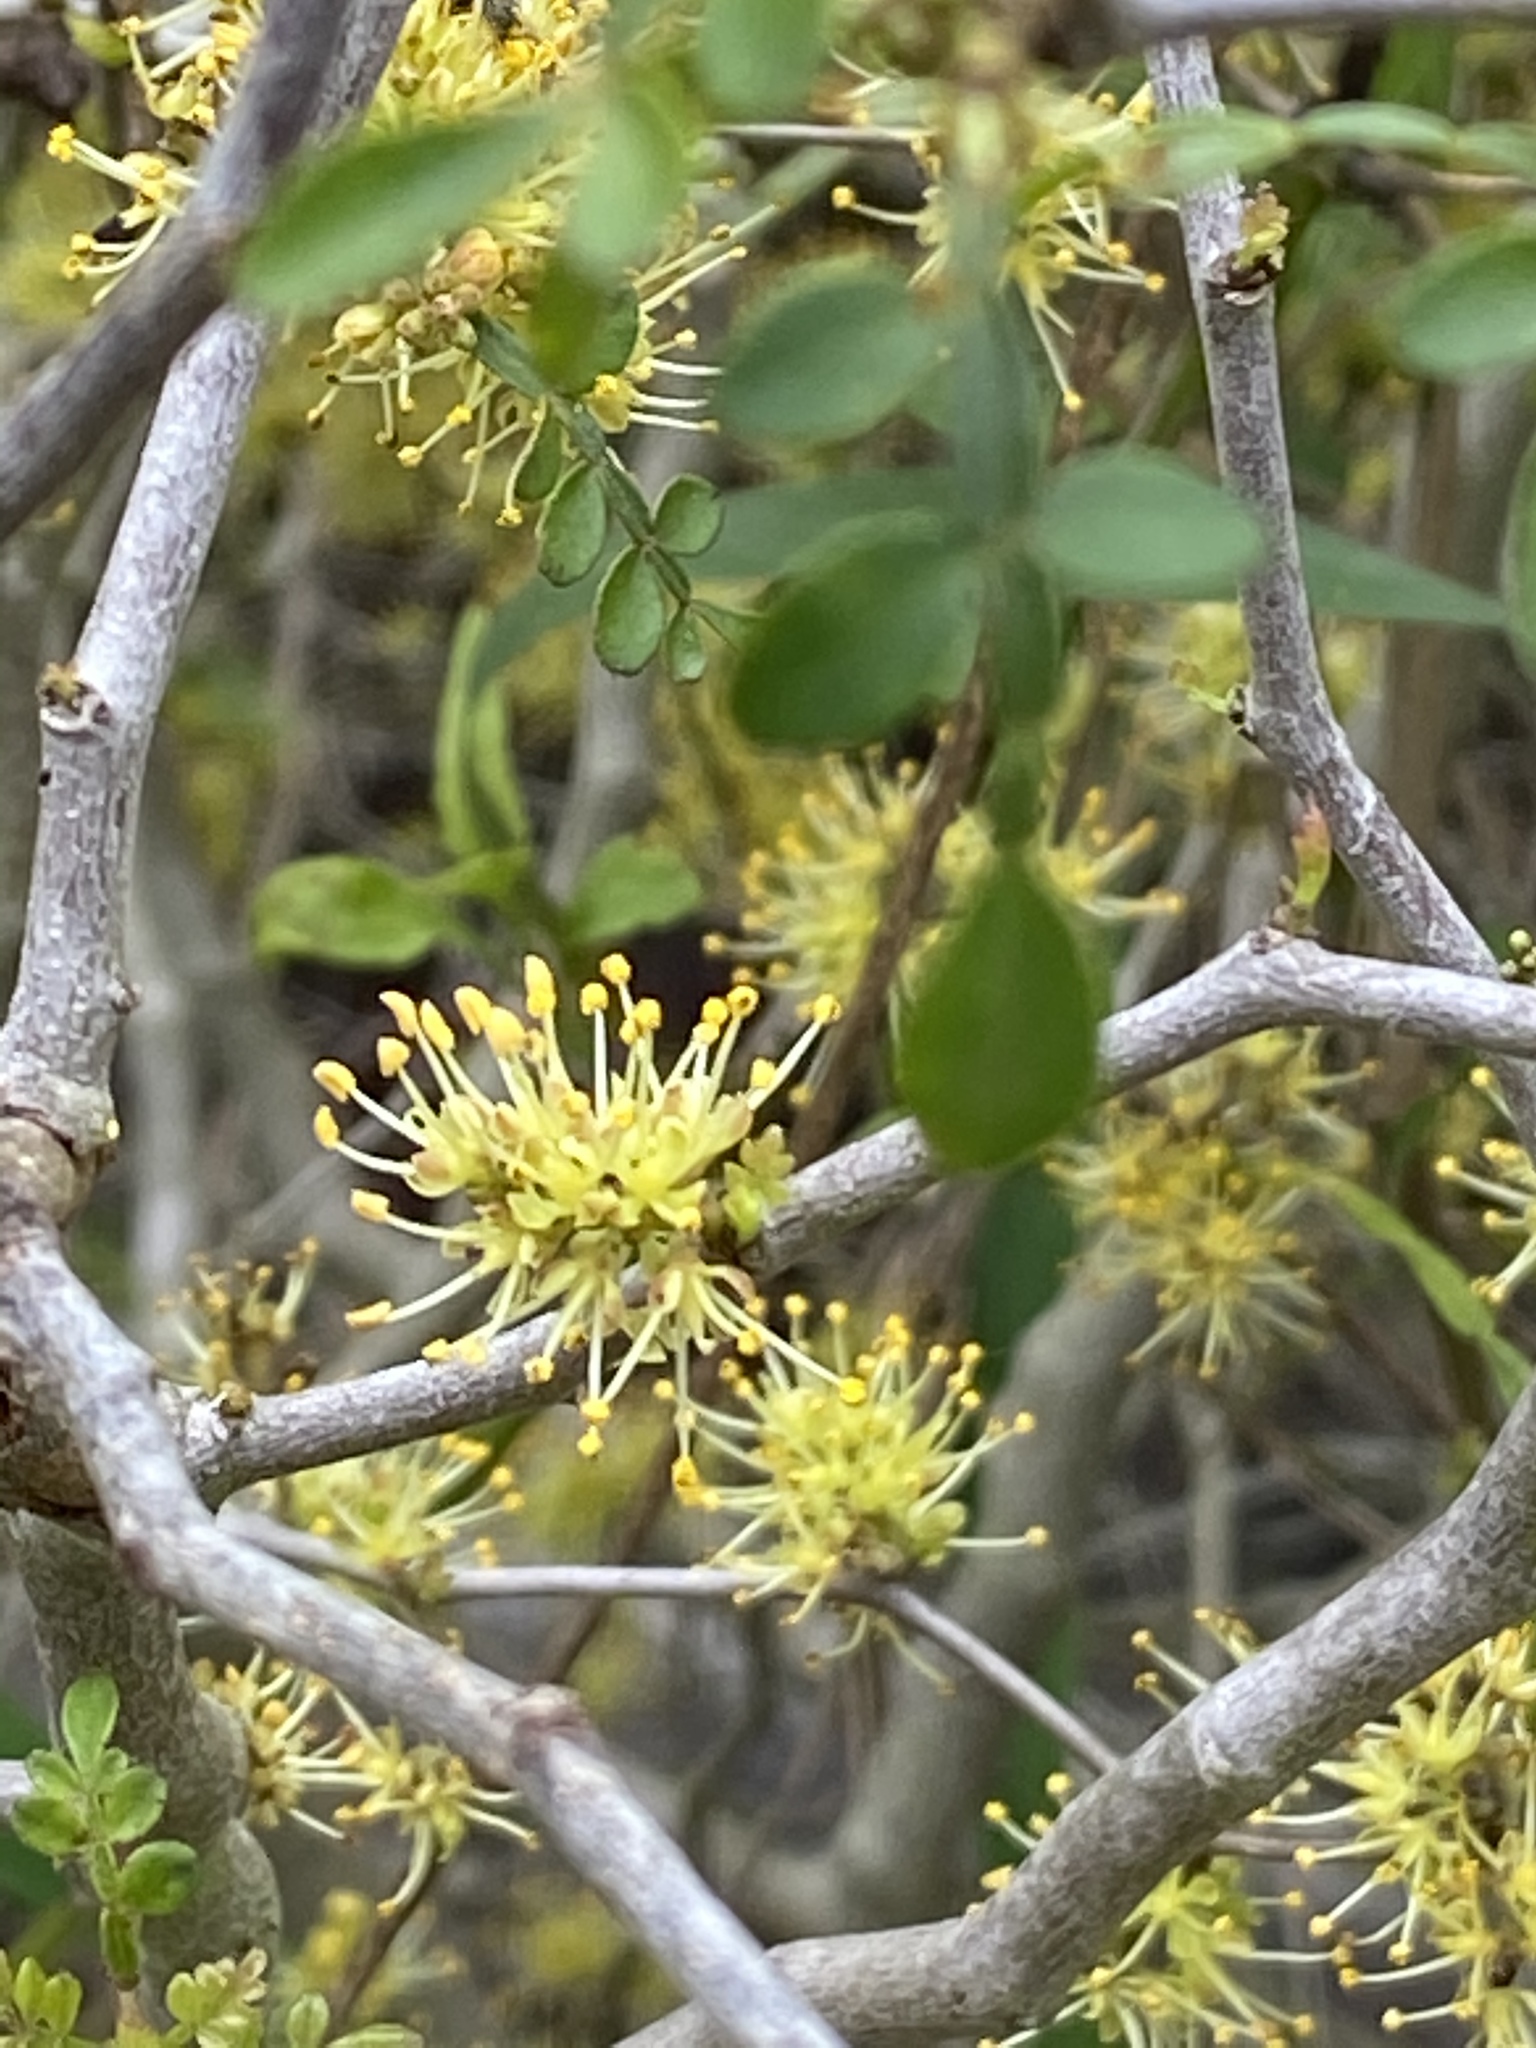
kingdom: Plantae
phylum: Tracheophyta
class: Magnoliopsida
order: Sapindales
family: Rutaceae
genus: Zanthoxylum
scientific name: Zanthoxylum fagara
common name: Lime prickly-ash
